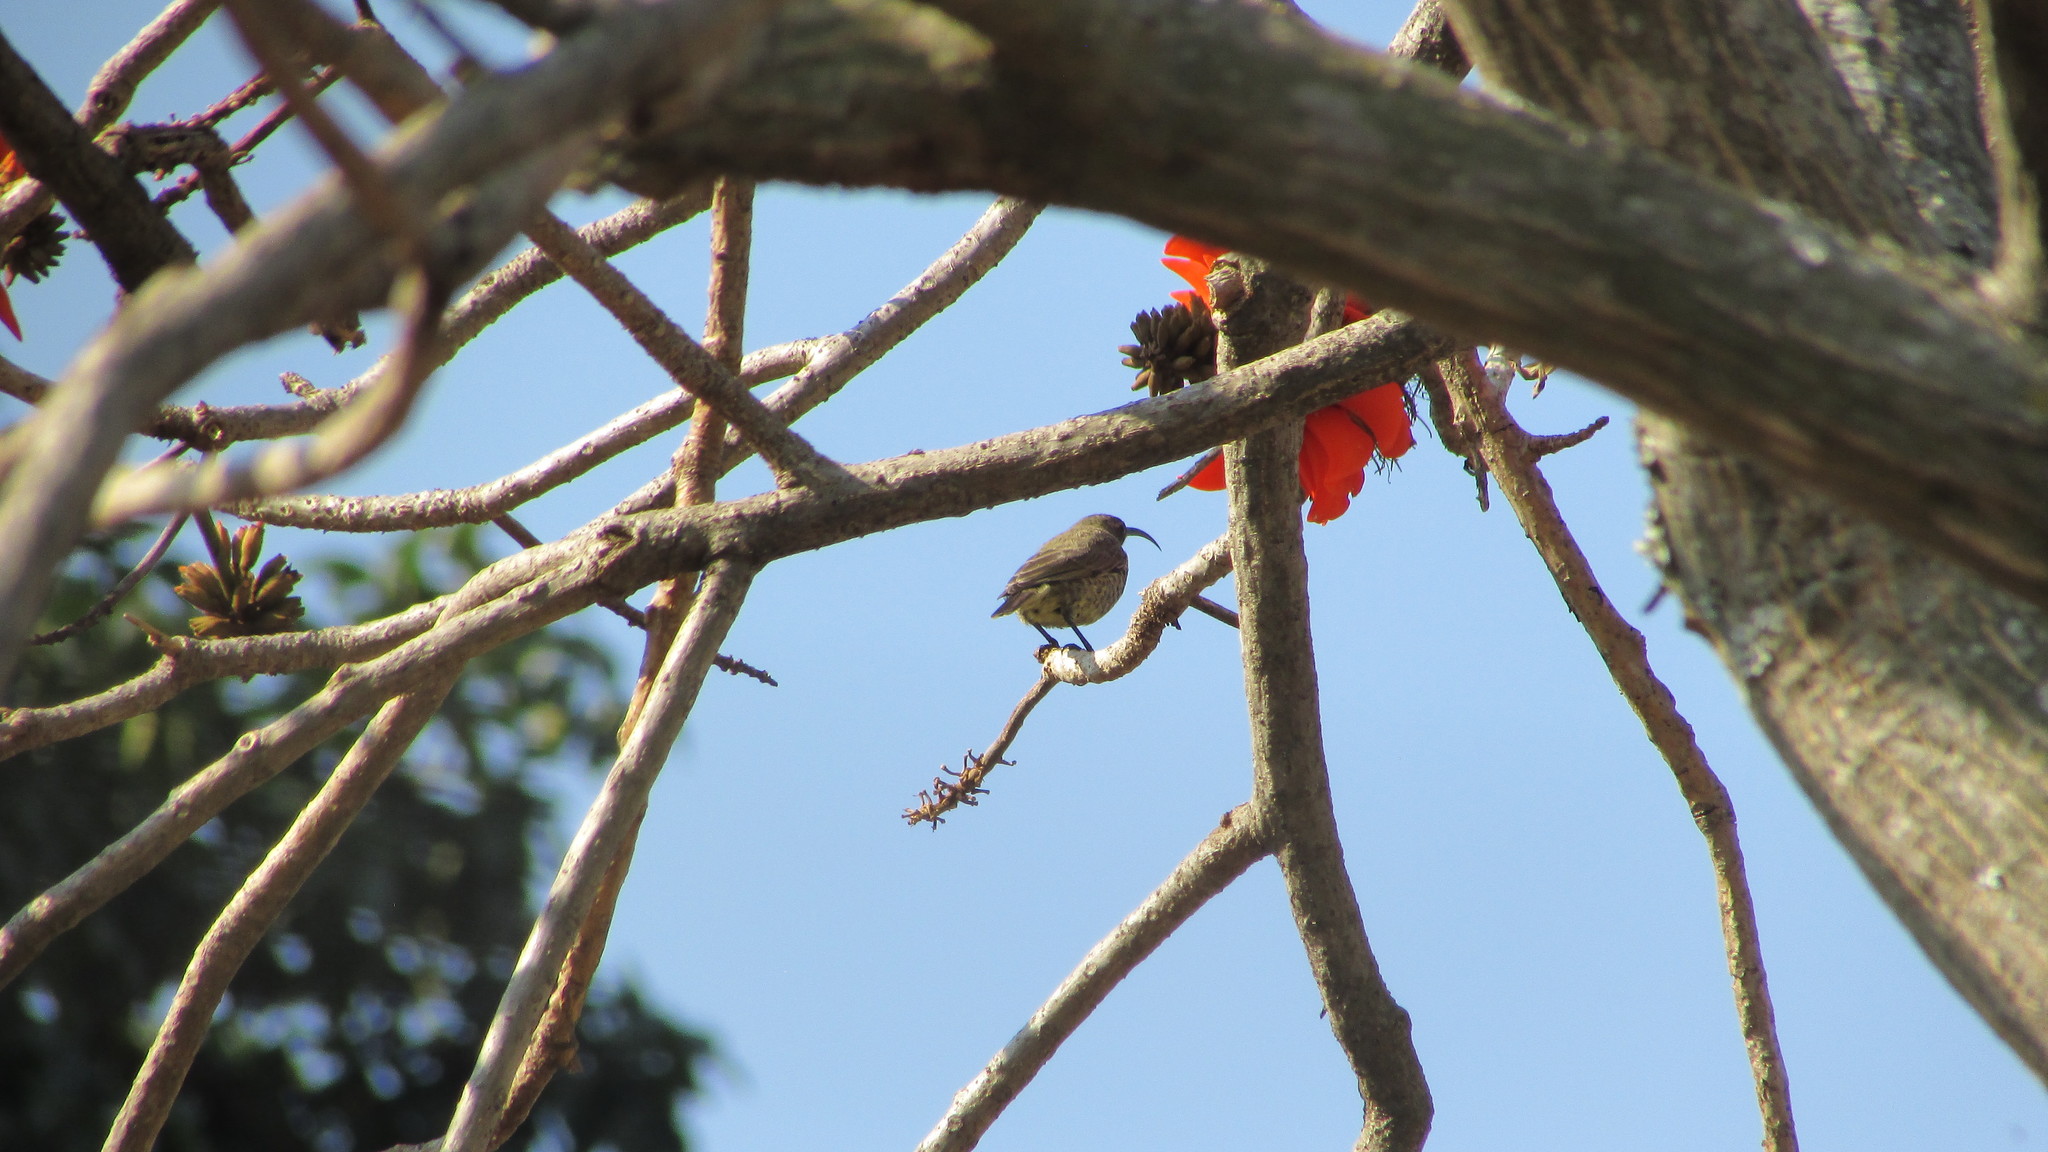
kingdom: Animalia
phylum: Chordata
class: Aves
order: Passeriformes
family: Nectariniidae
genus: Chalcomitra
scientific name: Chalcomitra amethystina
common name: Amethyst sunbird
